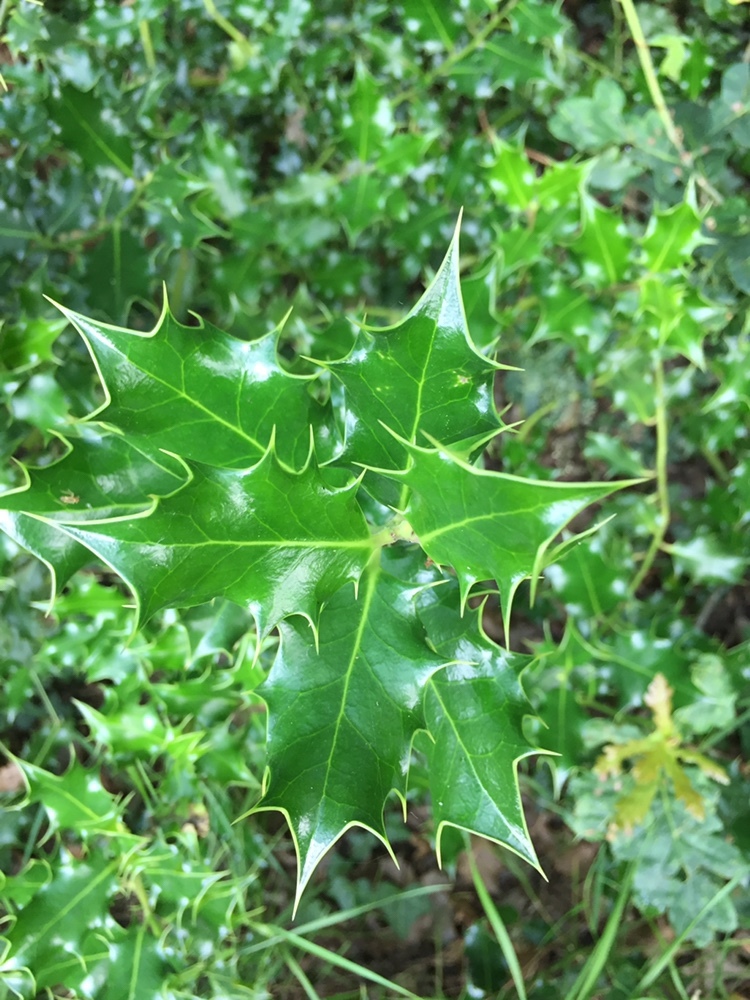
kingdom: Plantae
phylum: Tracheophyta
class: Magnoliopsida
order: Aquifoliales
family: Aquifoliaceae
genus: Ilex
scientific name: Ilex aquifolium
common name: English holly
